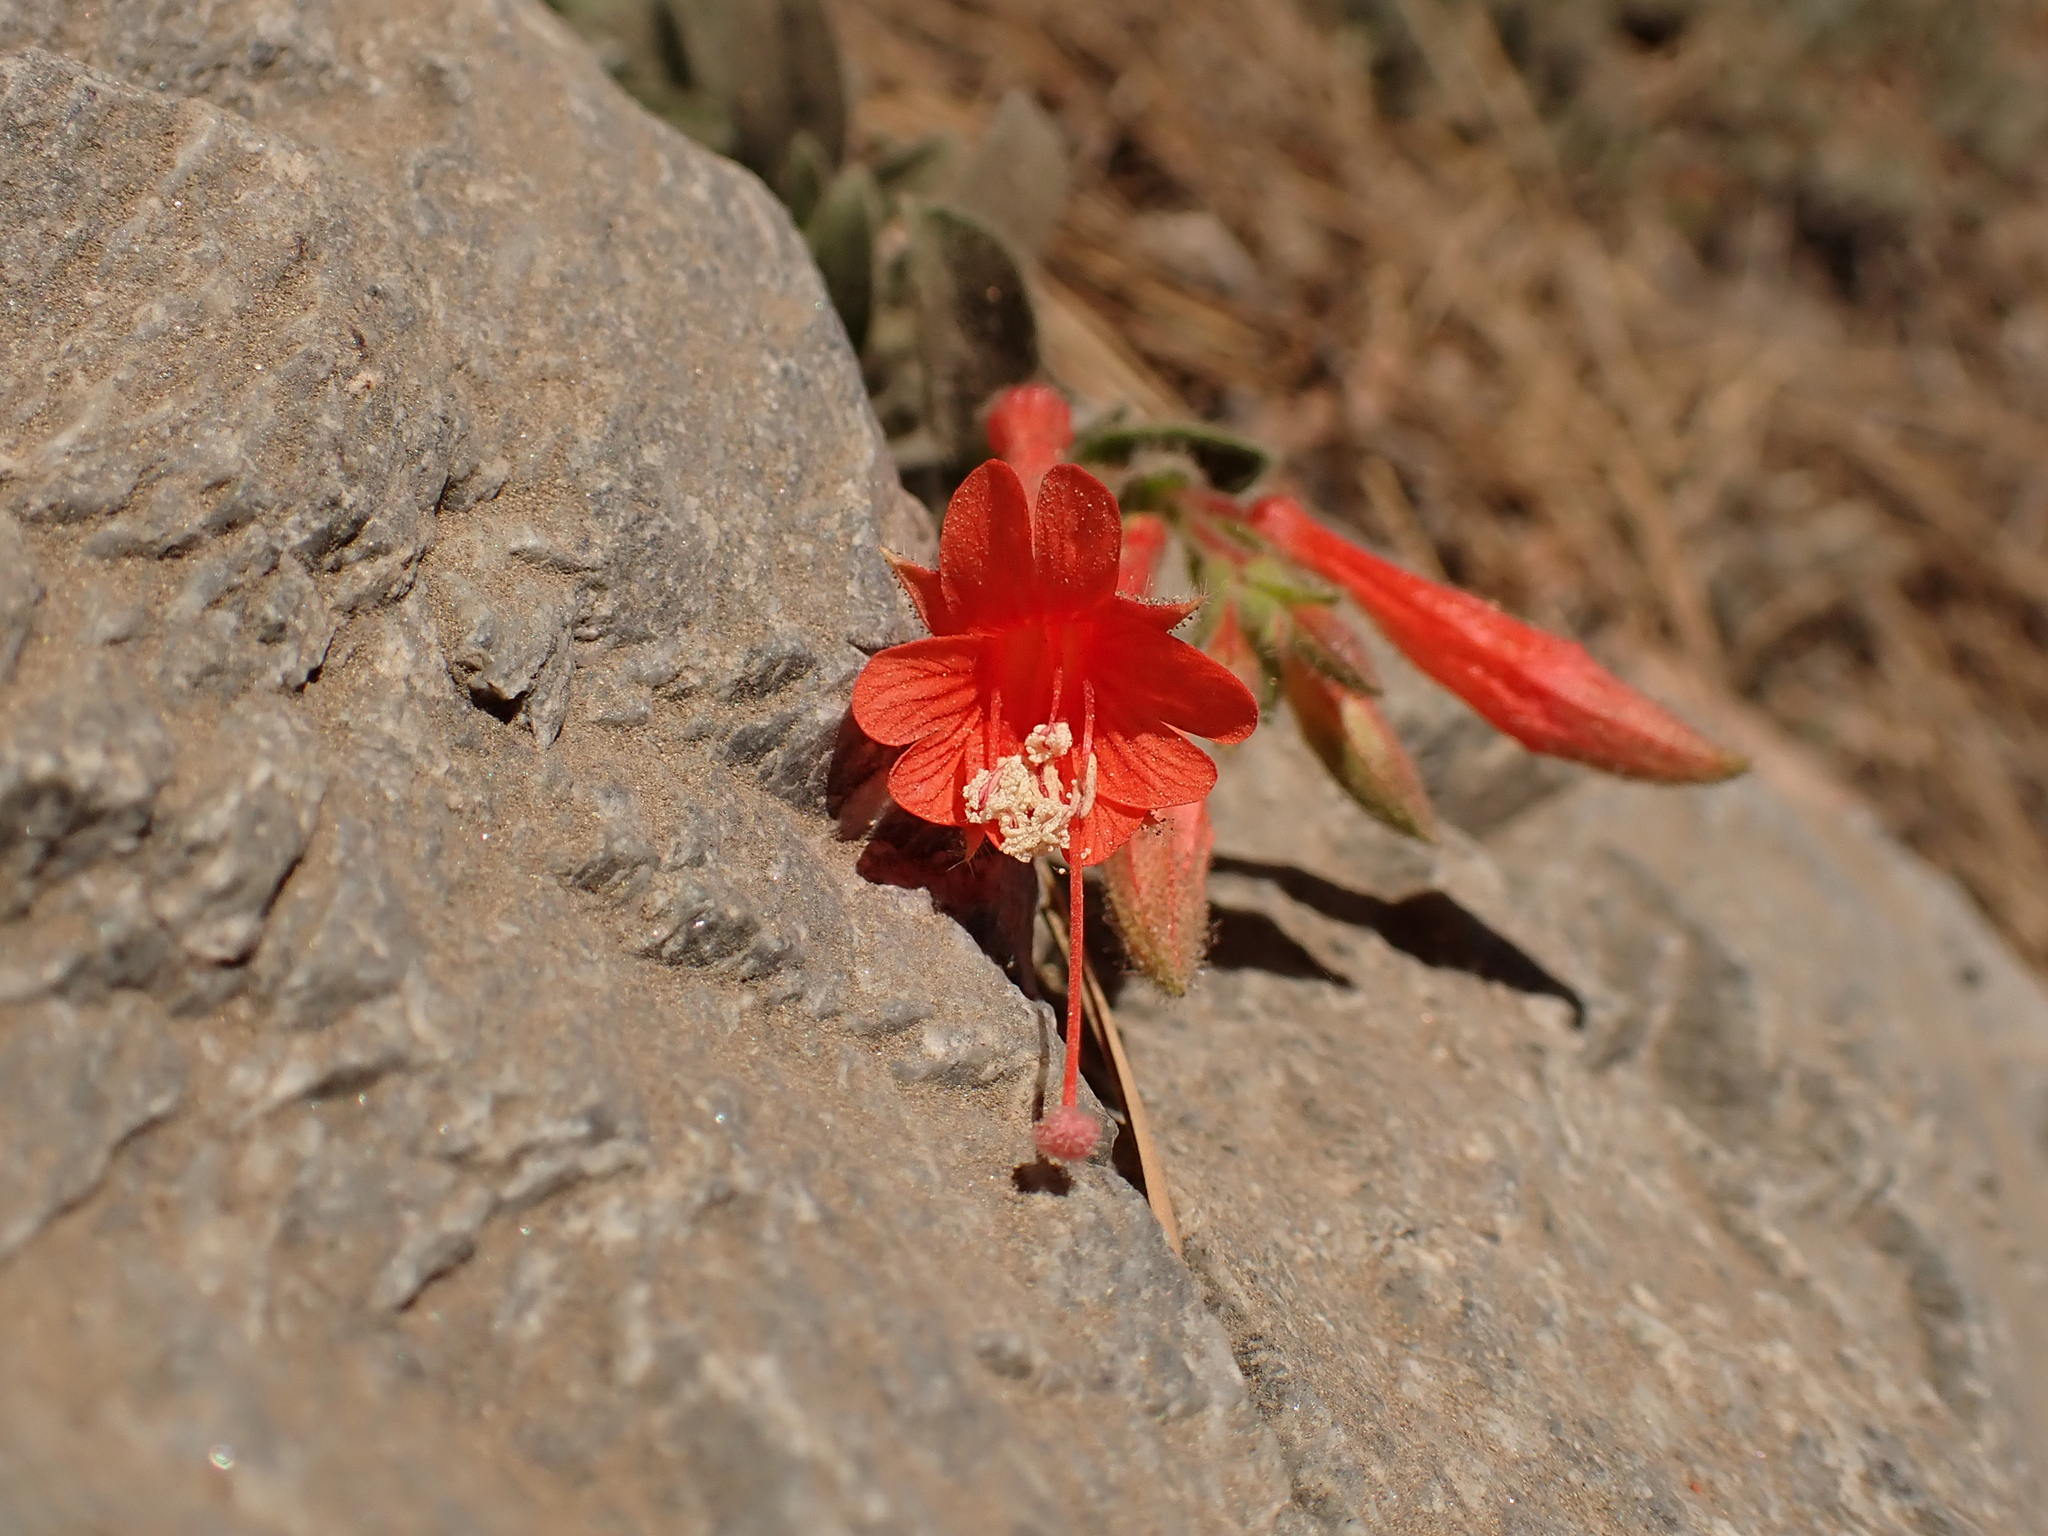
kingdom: Plantae
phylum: Tracheophyta
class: Magnoliopsida
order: Myrtales
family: Onagraceae
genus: Epilobium
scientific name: Epilobium canum
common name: California-fuchsia
